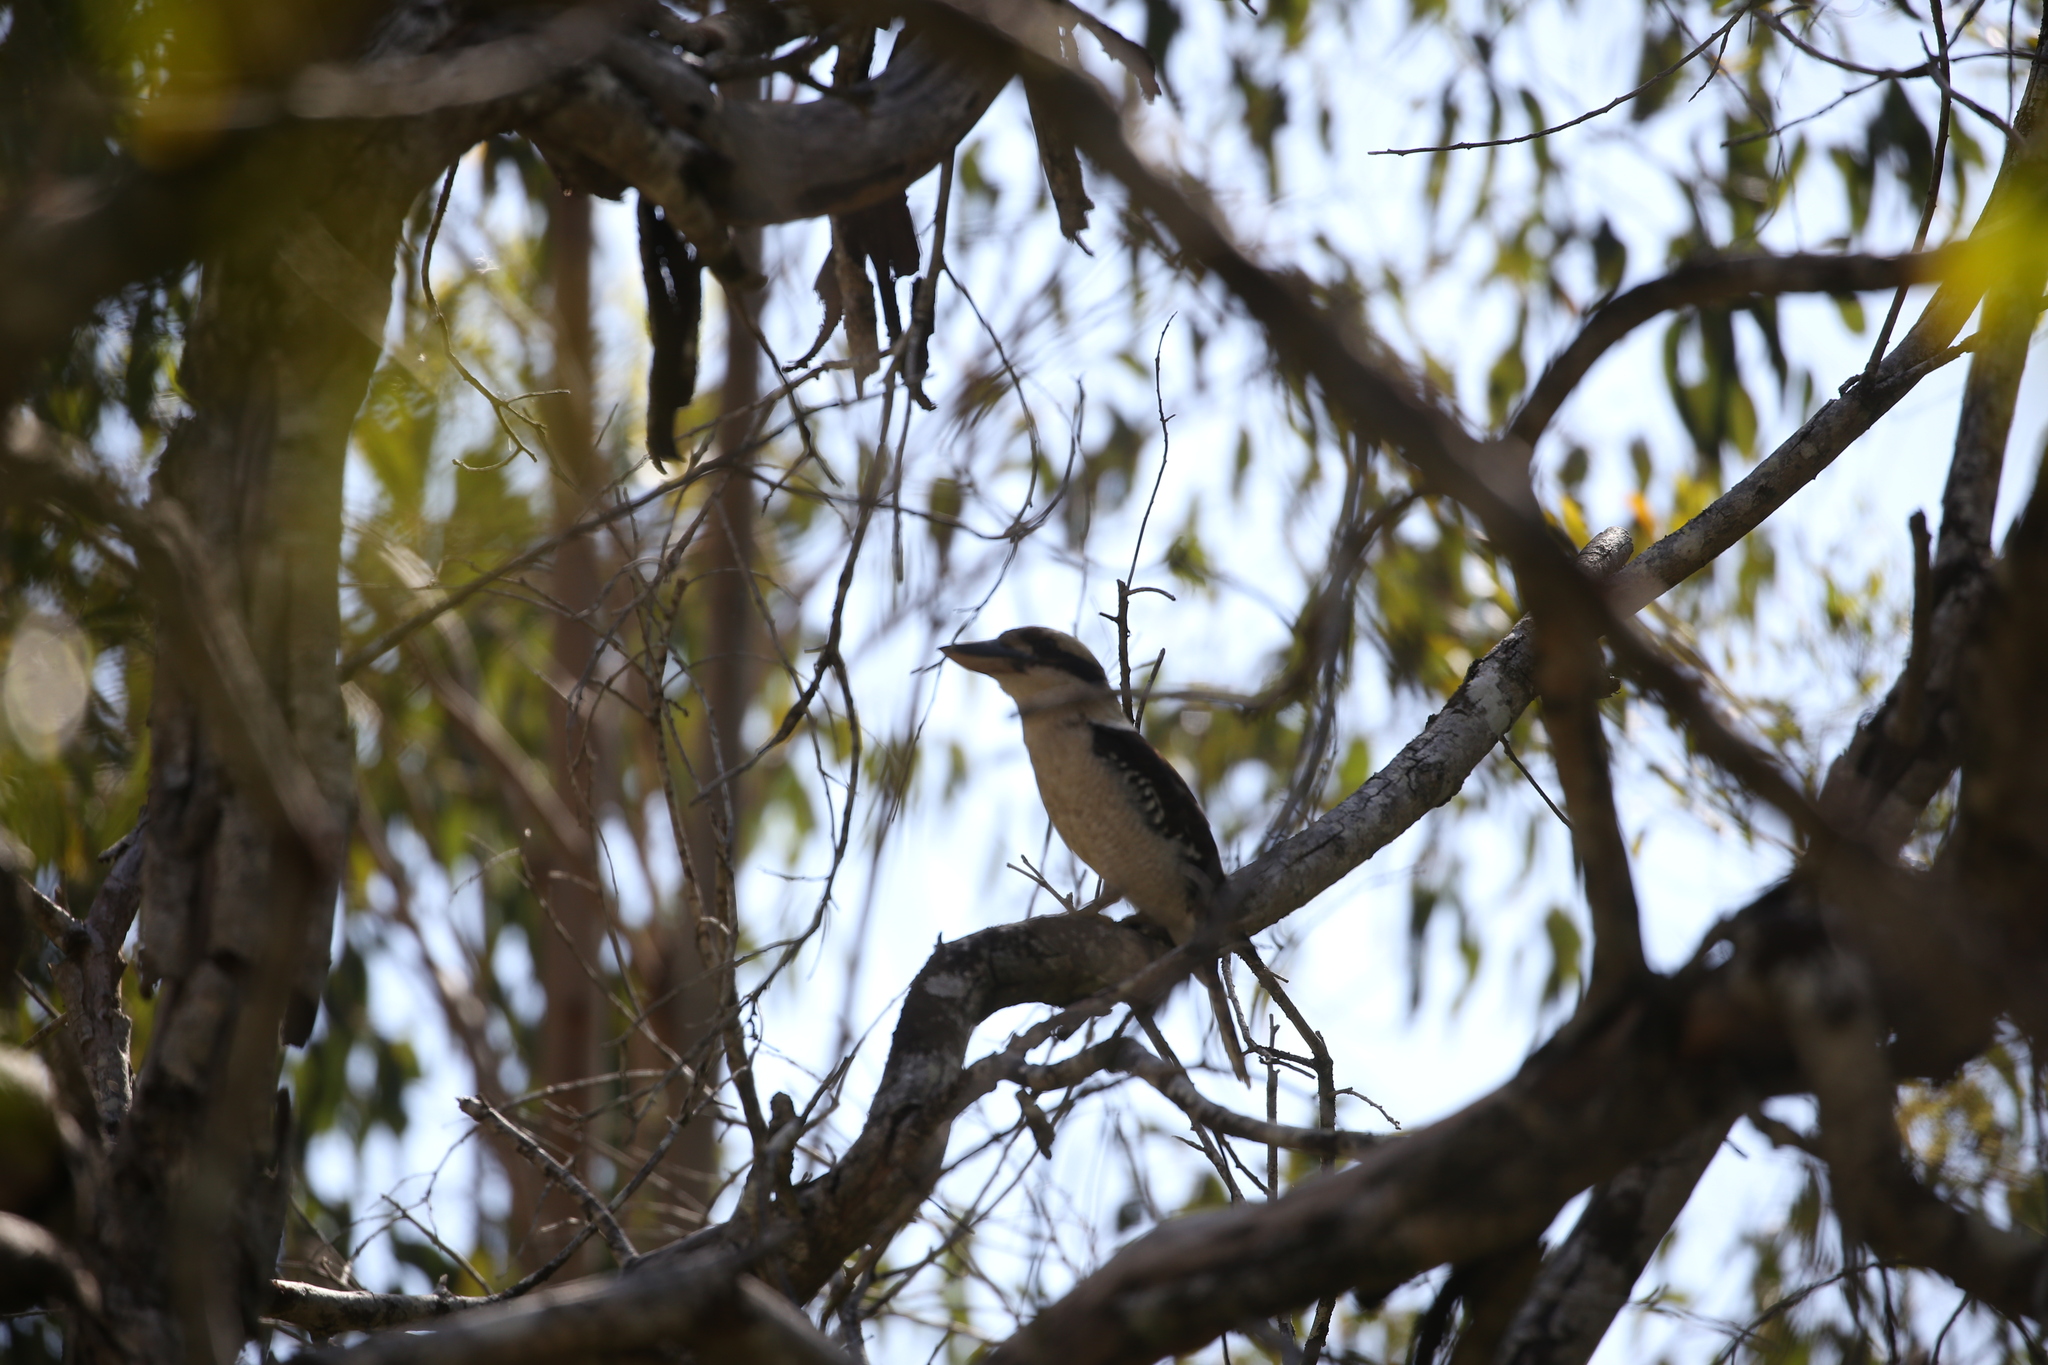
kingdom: Animalia
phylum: Chordata
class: Aves
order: Coraciiformes
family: Alcedinidae
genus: Dacelo
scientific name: Dacelo novaeguineae
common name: Laughing kookaburra
